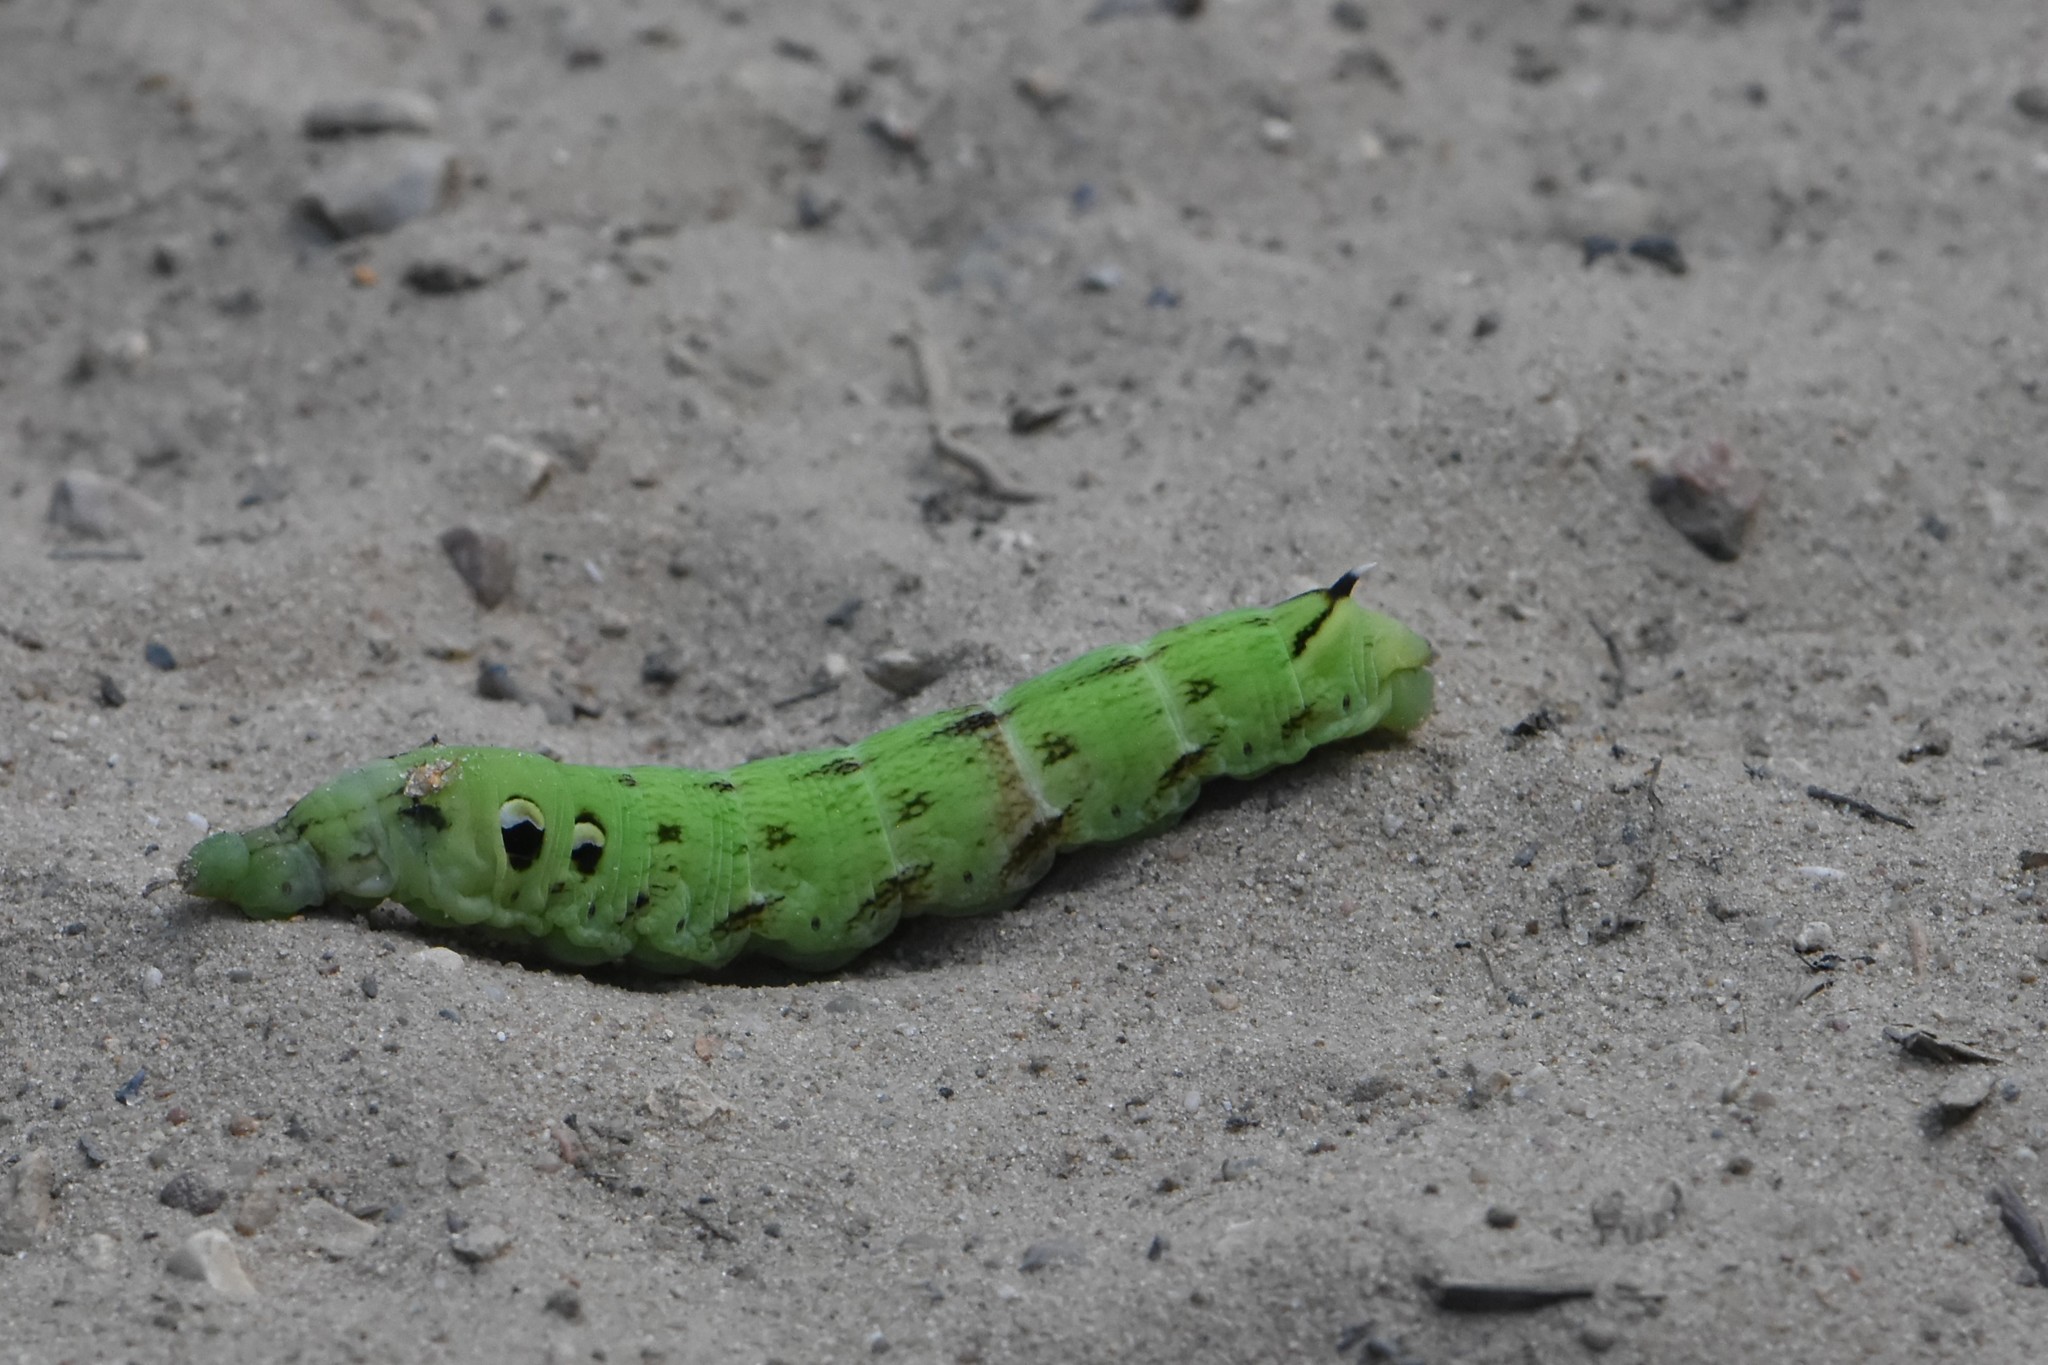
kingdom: Animalia
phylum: Arthropoda
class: Insecta
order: Lepidoptera
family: Sphingidae
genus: Deilephila
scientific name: Deilephila elpenor
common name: Elephant hawk-moth
